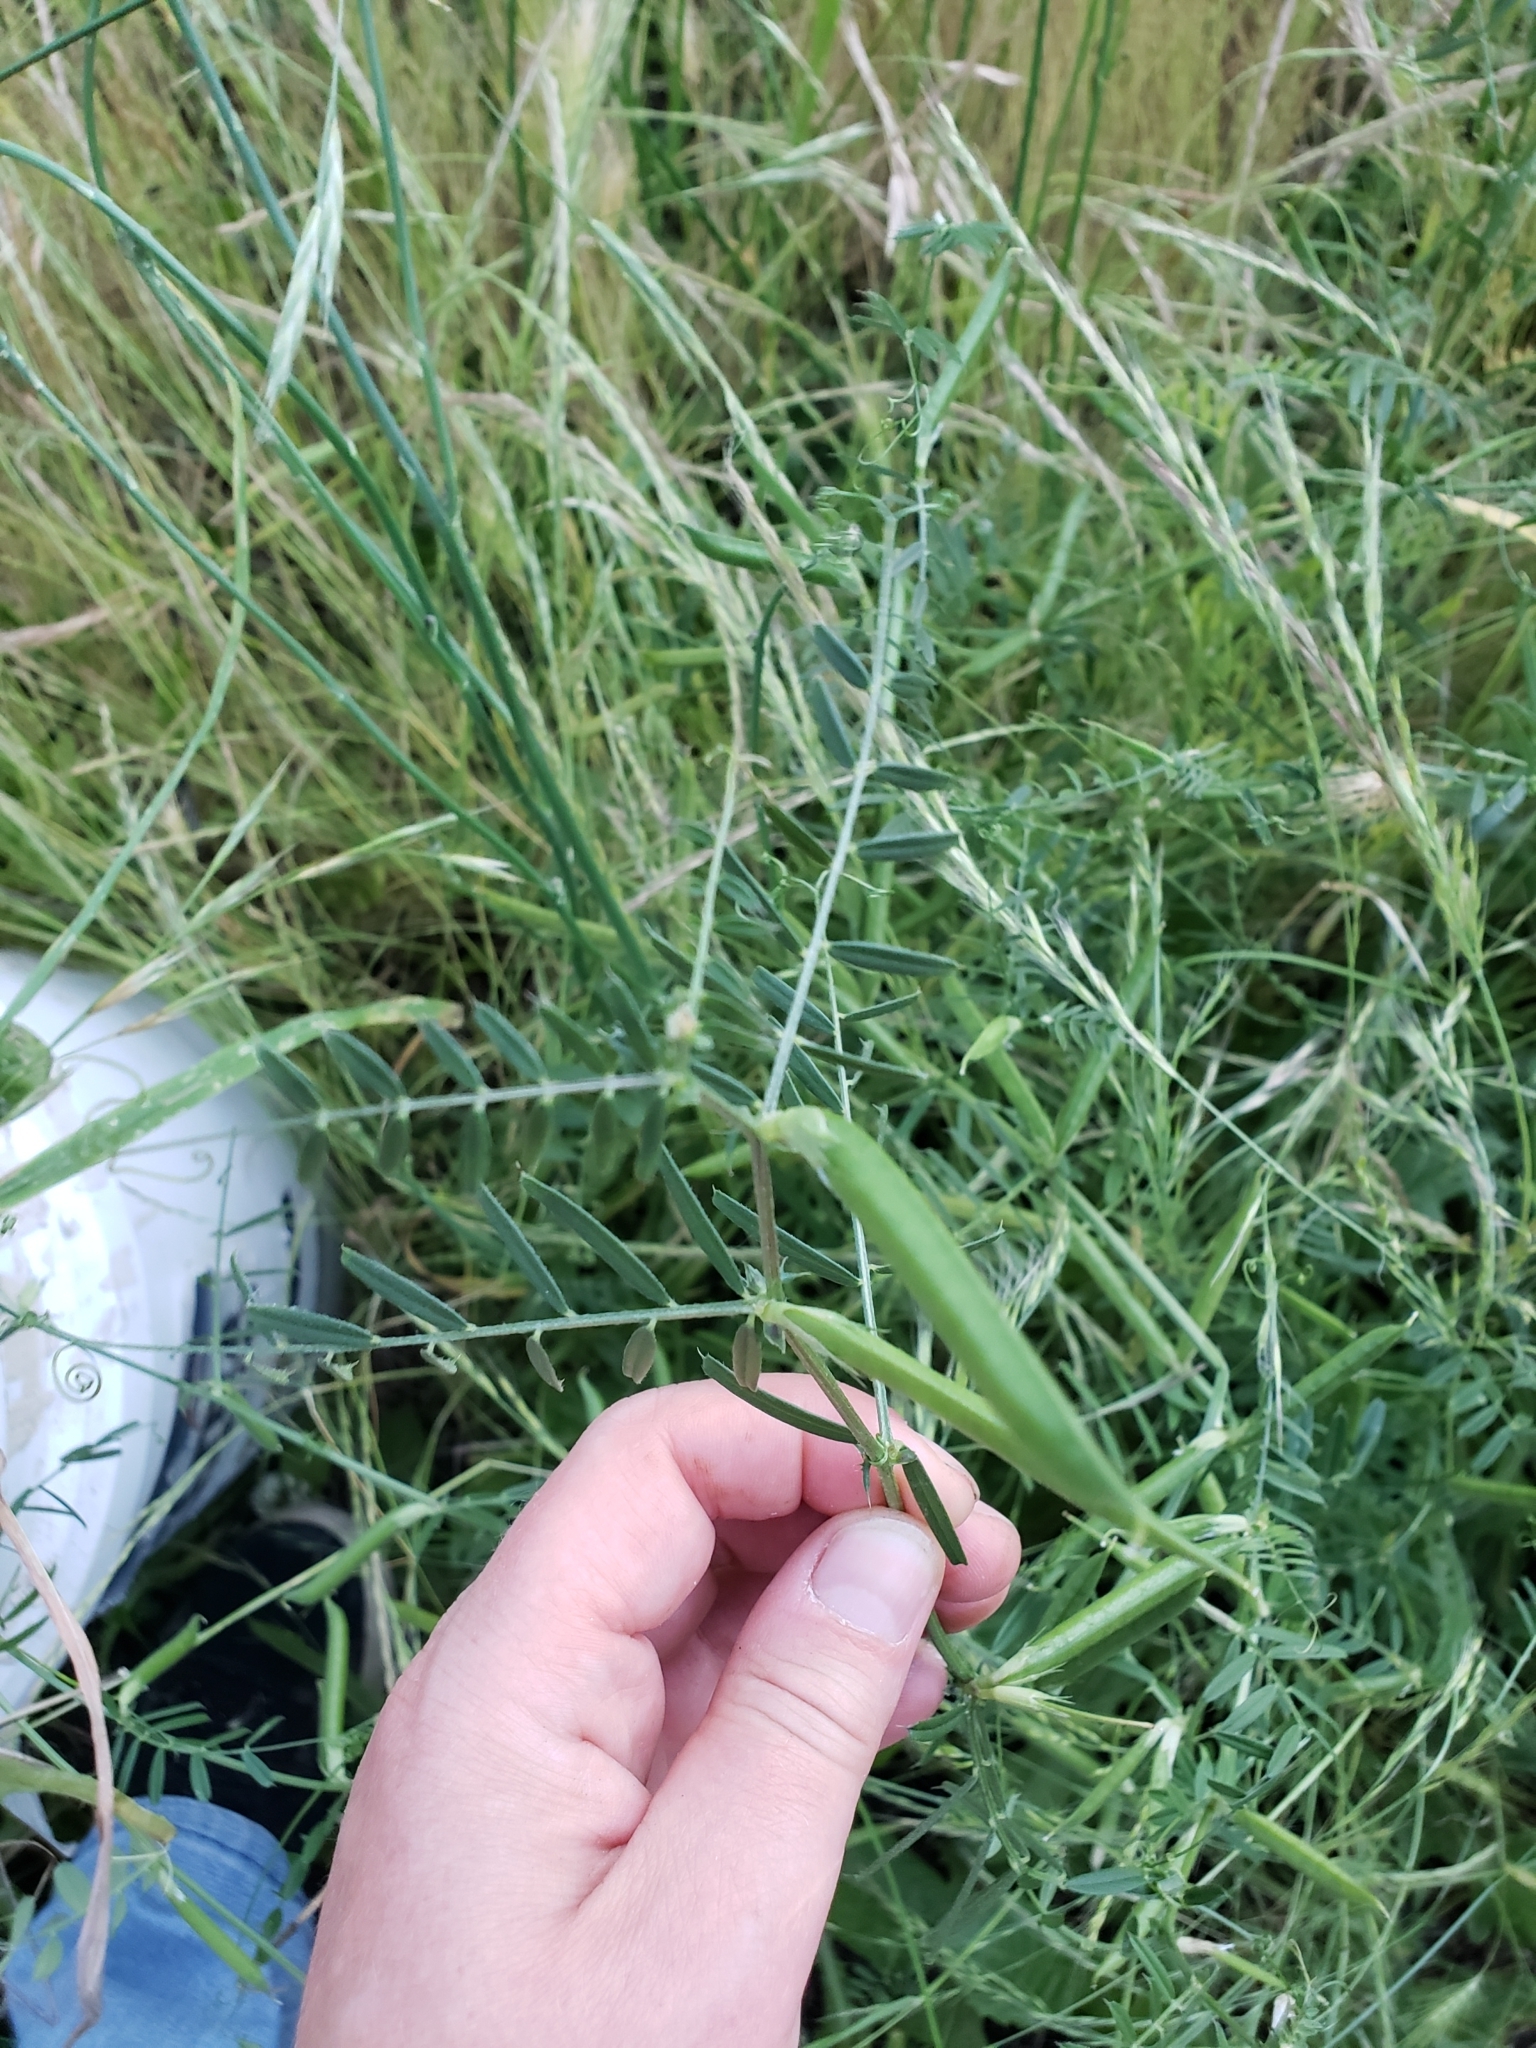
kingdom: Plantae
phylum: Tracheophyta
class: Magnoliopsida
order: Fabales
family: Fabaceae
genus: Vicia
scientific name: Vicia sativa
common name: Garden vetch
